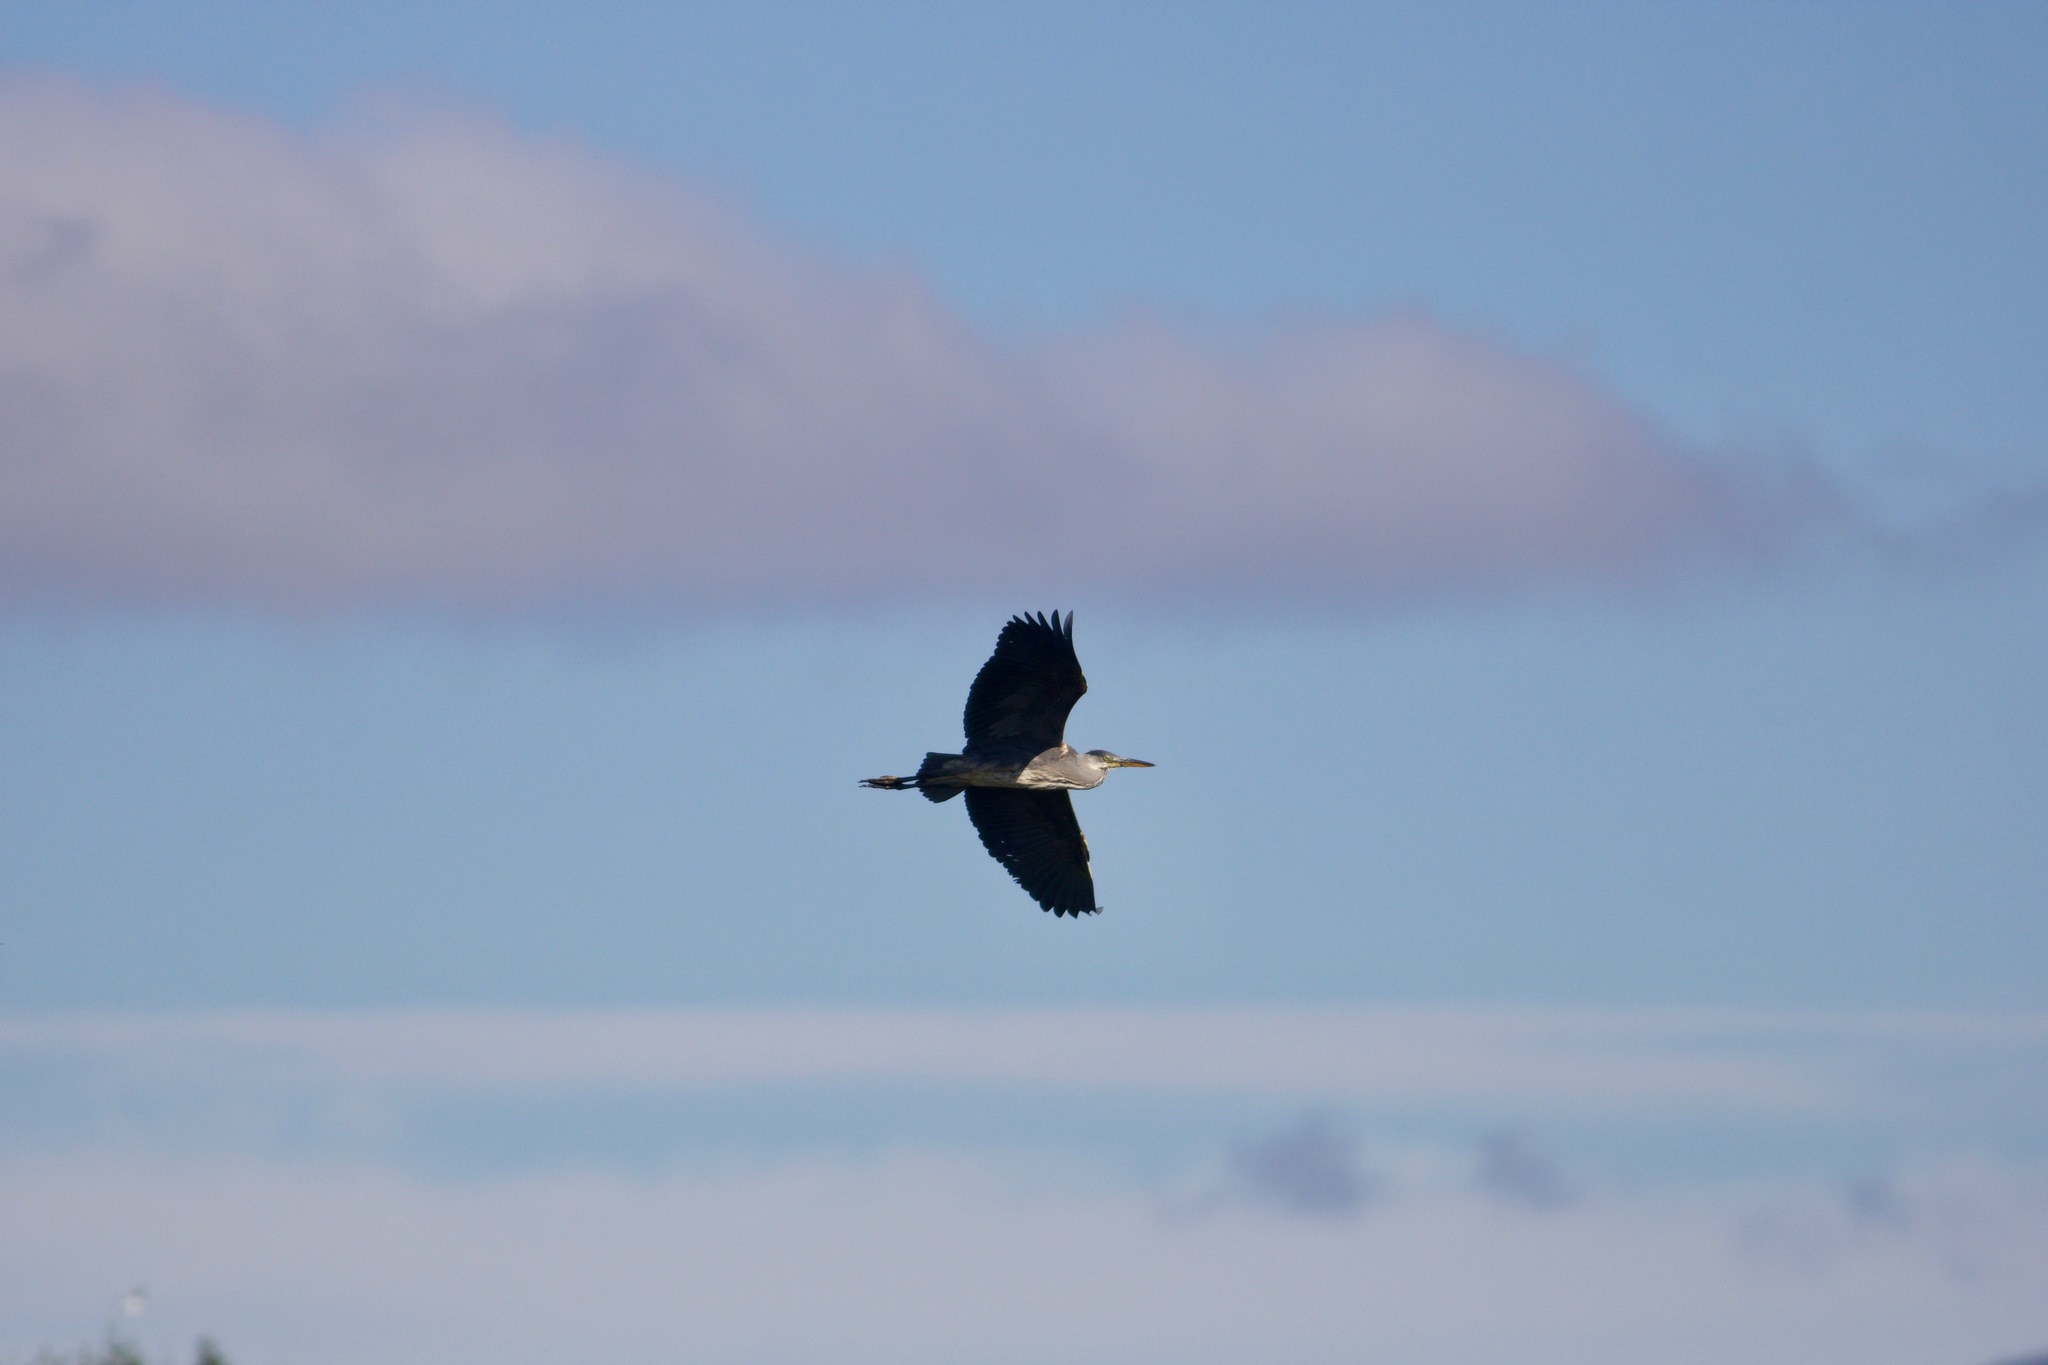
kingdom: Animalia
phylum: Chordata
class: Aves
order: Pelecaniformes
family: Ardeidae
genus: Ardea
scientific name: Ardea cinerea
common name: Grey heron
